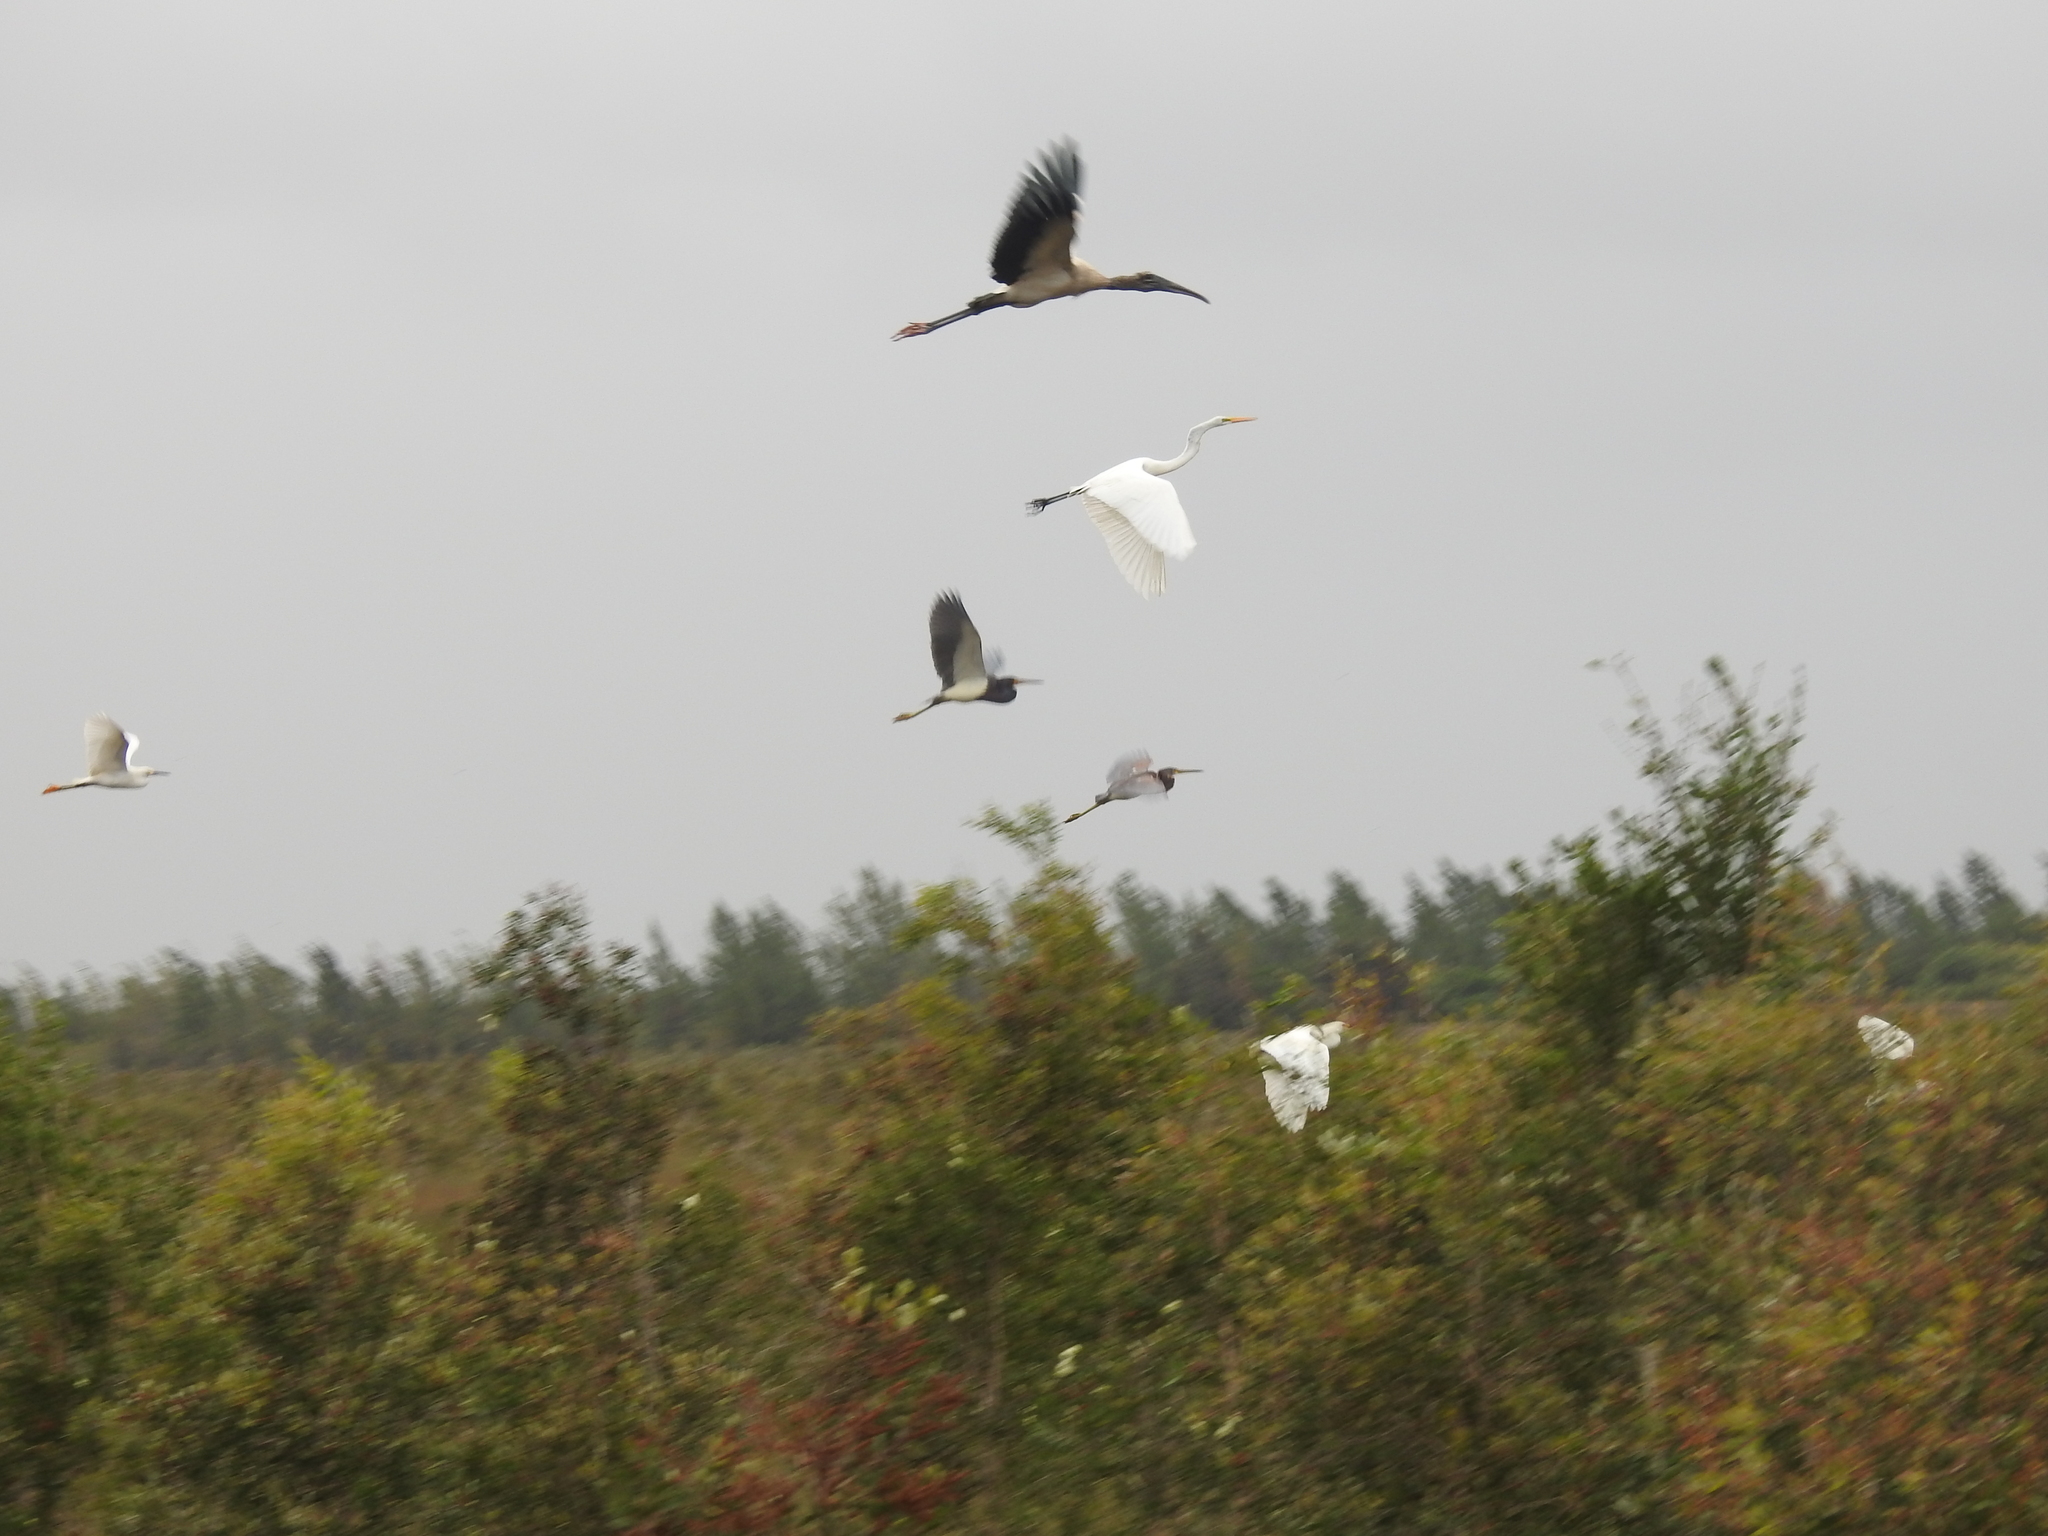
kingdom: Animalia
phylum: Chordata
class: Aves
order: Pelecaniformes
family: Ardeidae
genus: Egretta
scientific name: Egretta tricolor
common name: Tricolored heron
